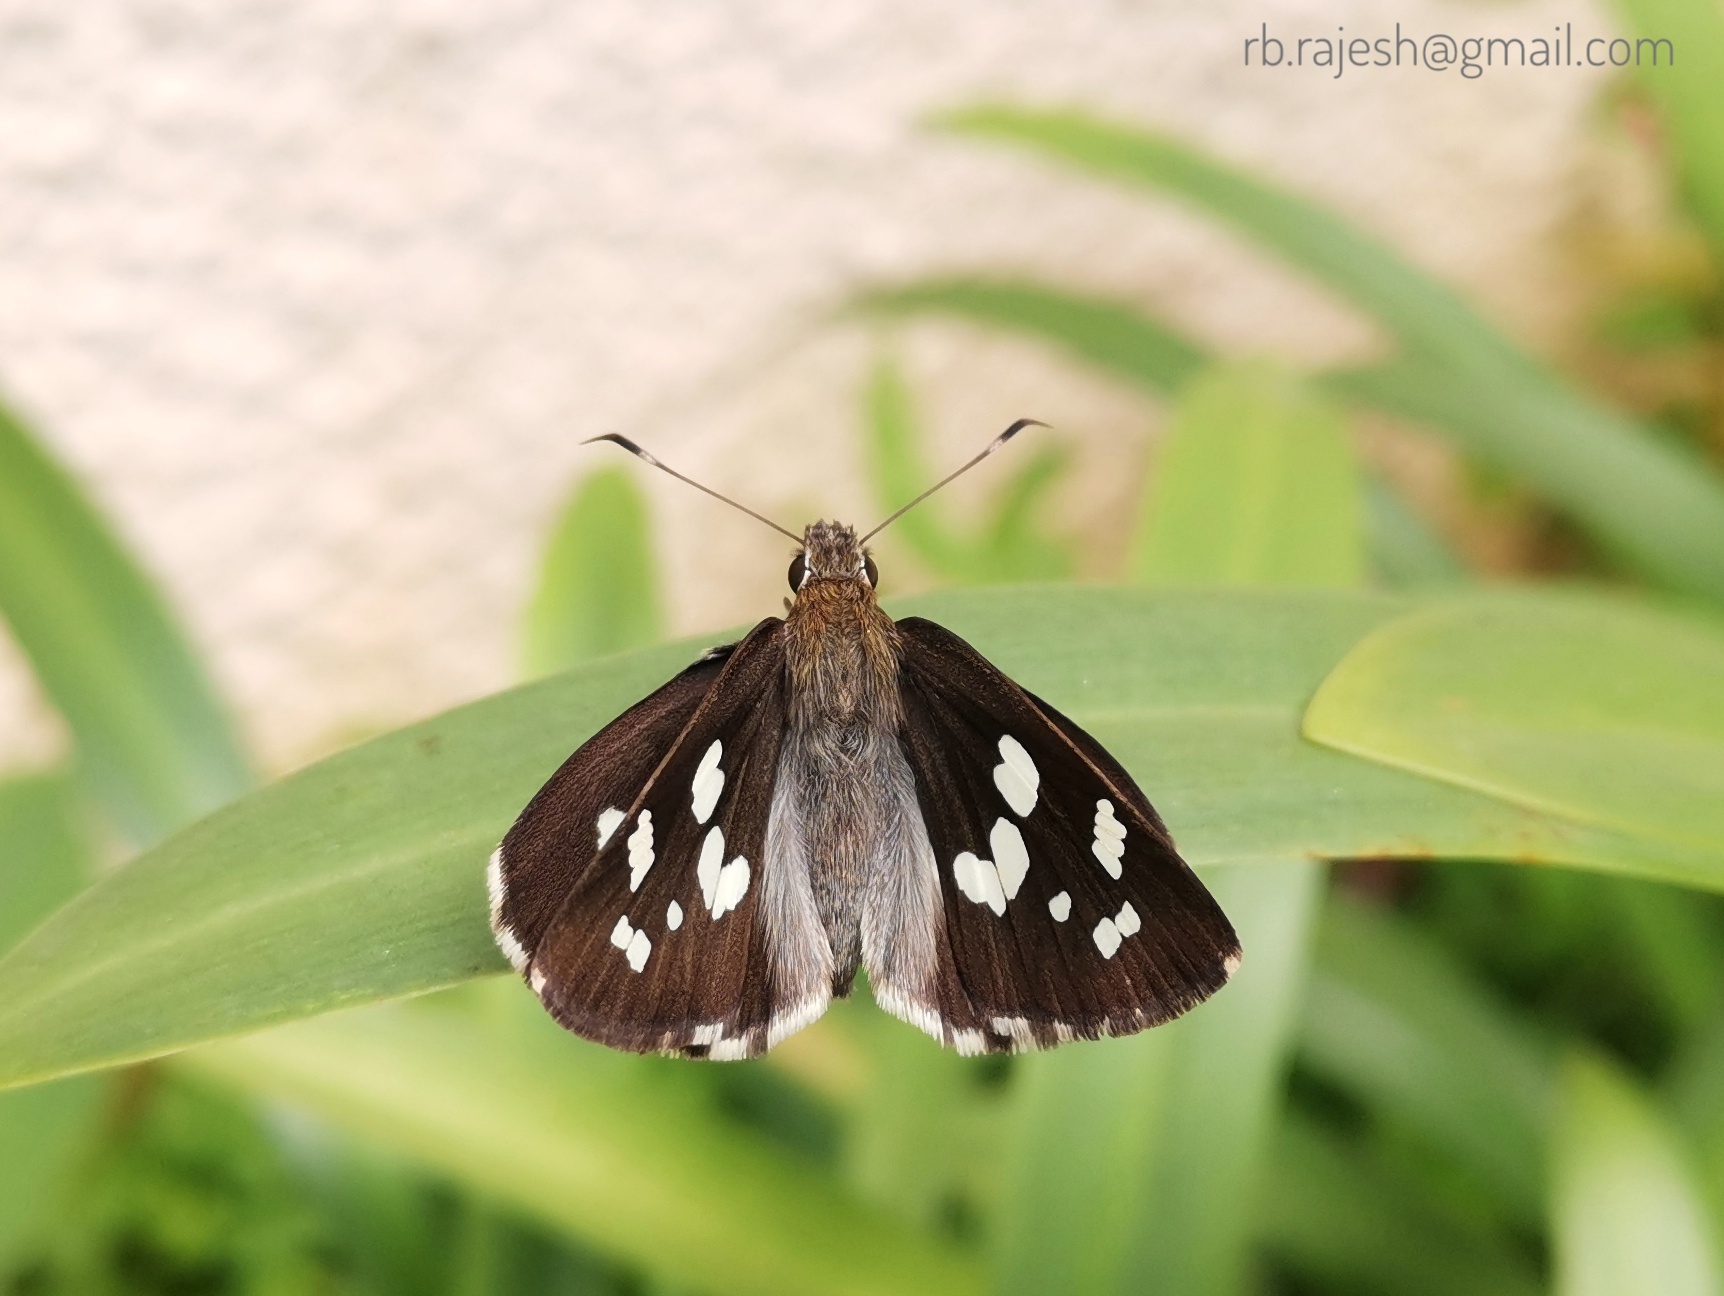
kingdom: Animalia
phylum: Arthropoda
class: Insecta
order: Lepidoptera
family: Hesperiidae
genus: Udaspes
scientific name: Udaspes folus
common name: Grass demon
